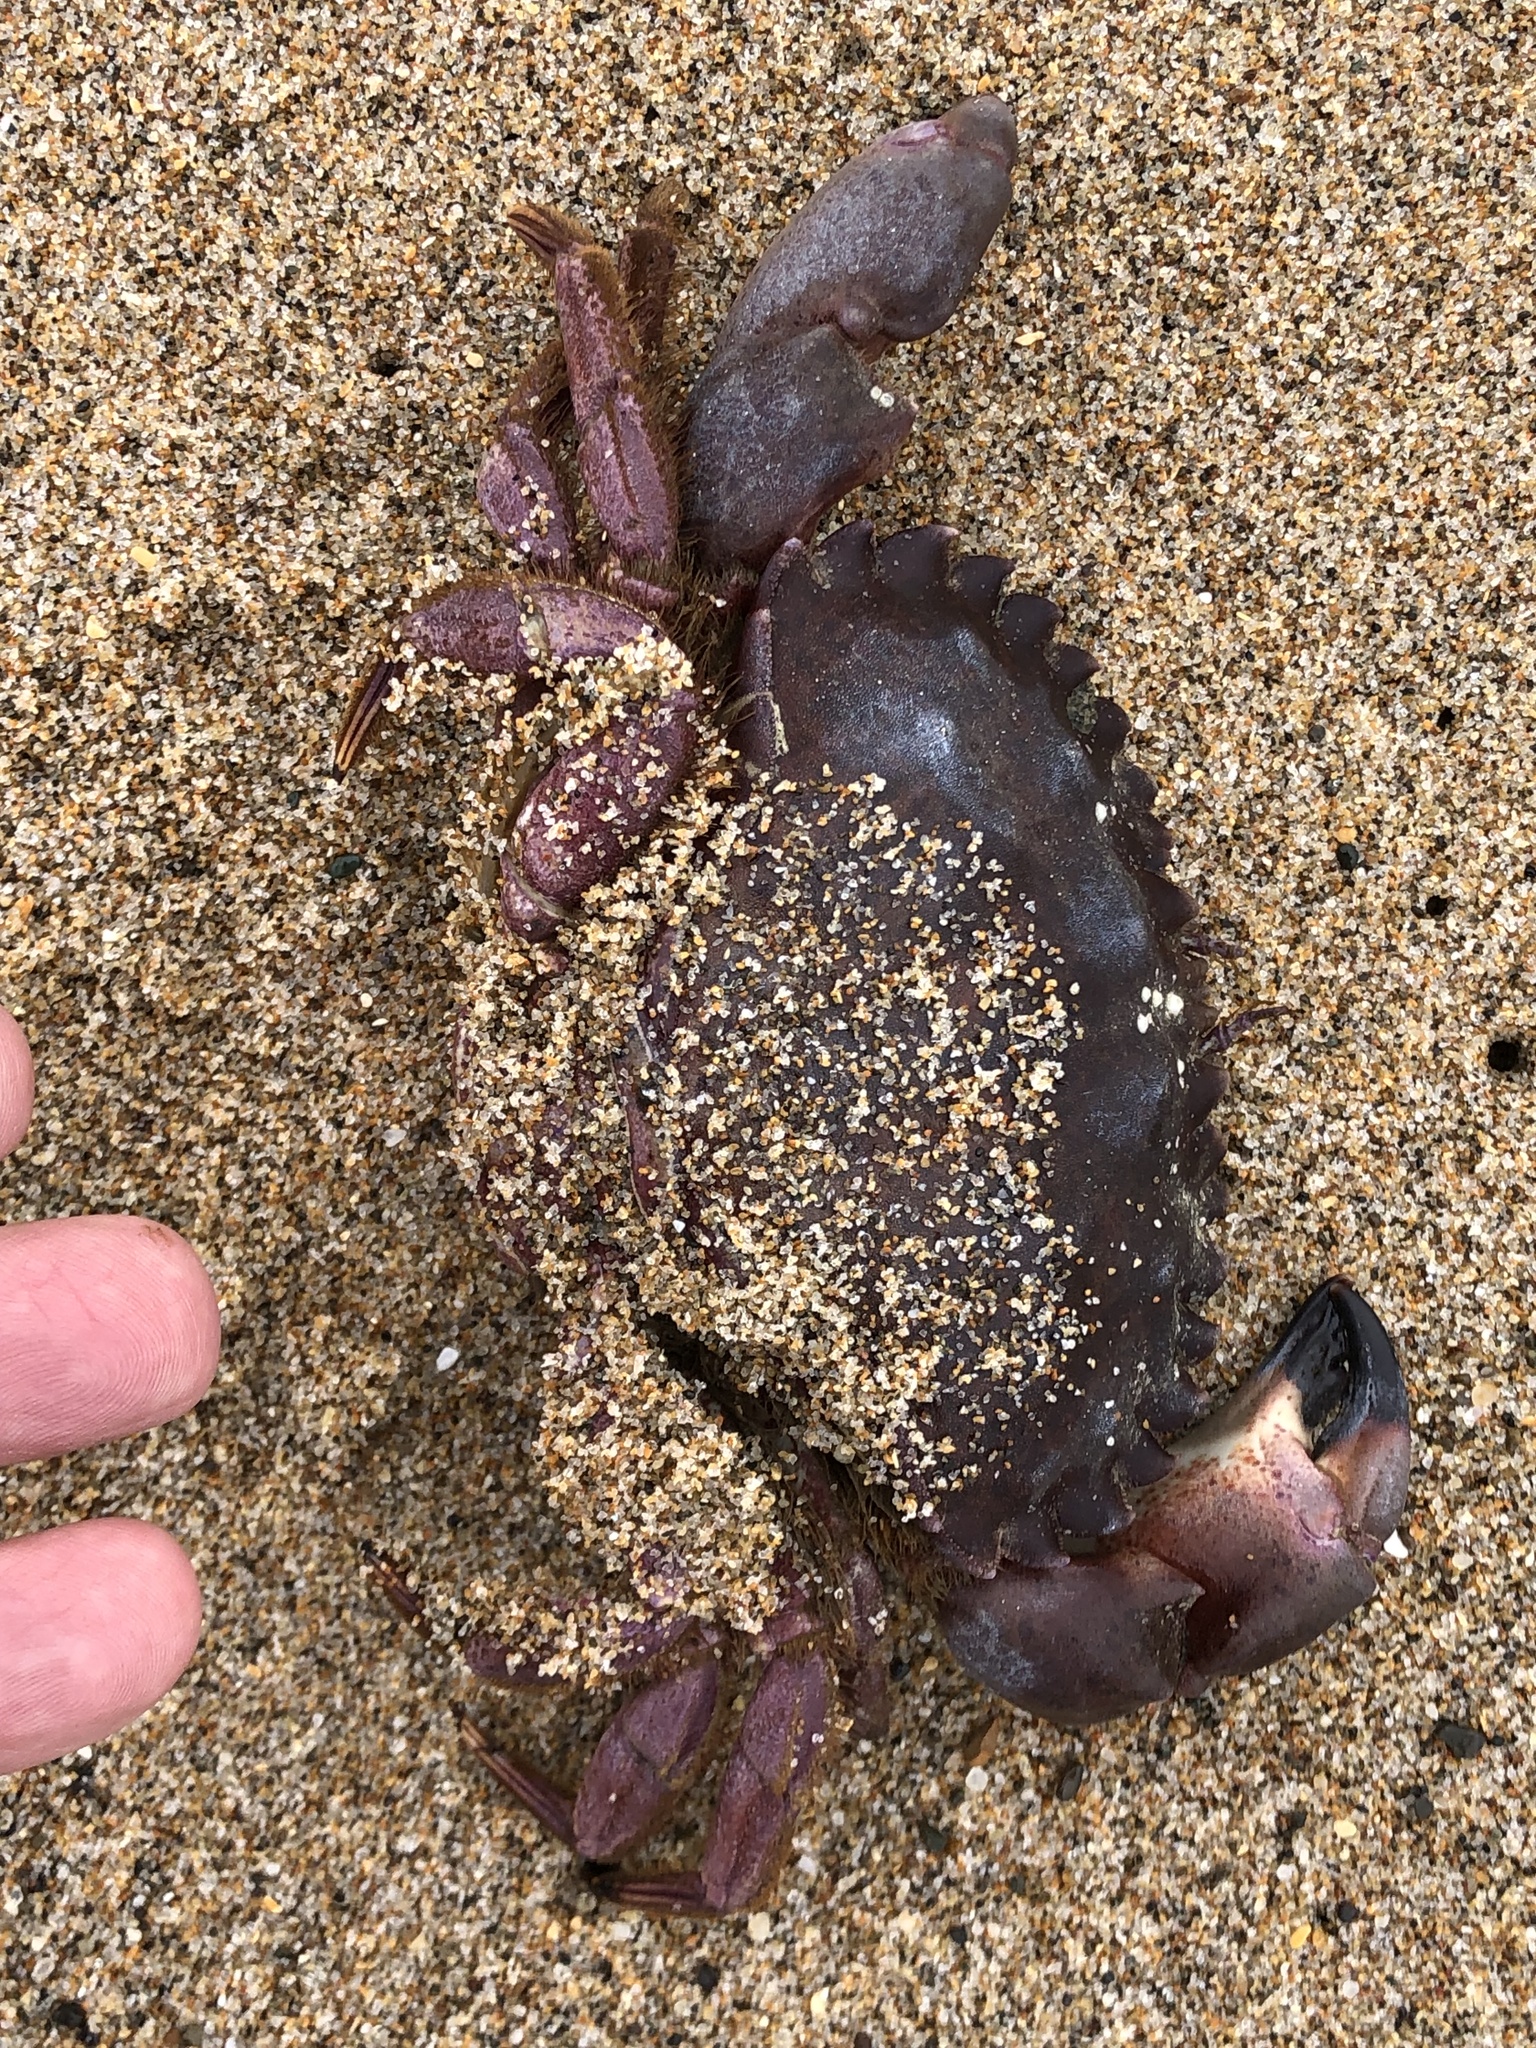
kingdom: Animalia
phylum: Arthropoda
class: Malacostraca
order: Decapoda
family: Cancridae
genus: Romaleon
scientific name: Romaleon antennarium
